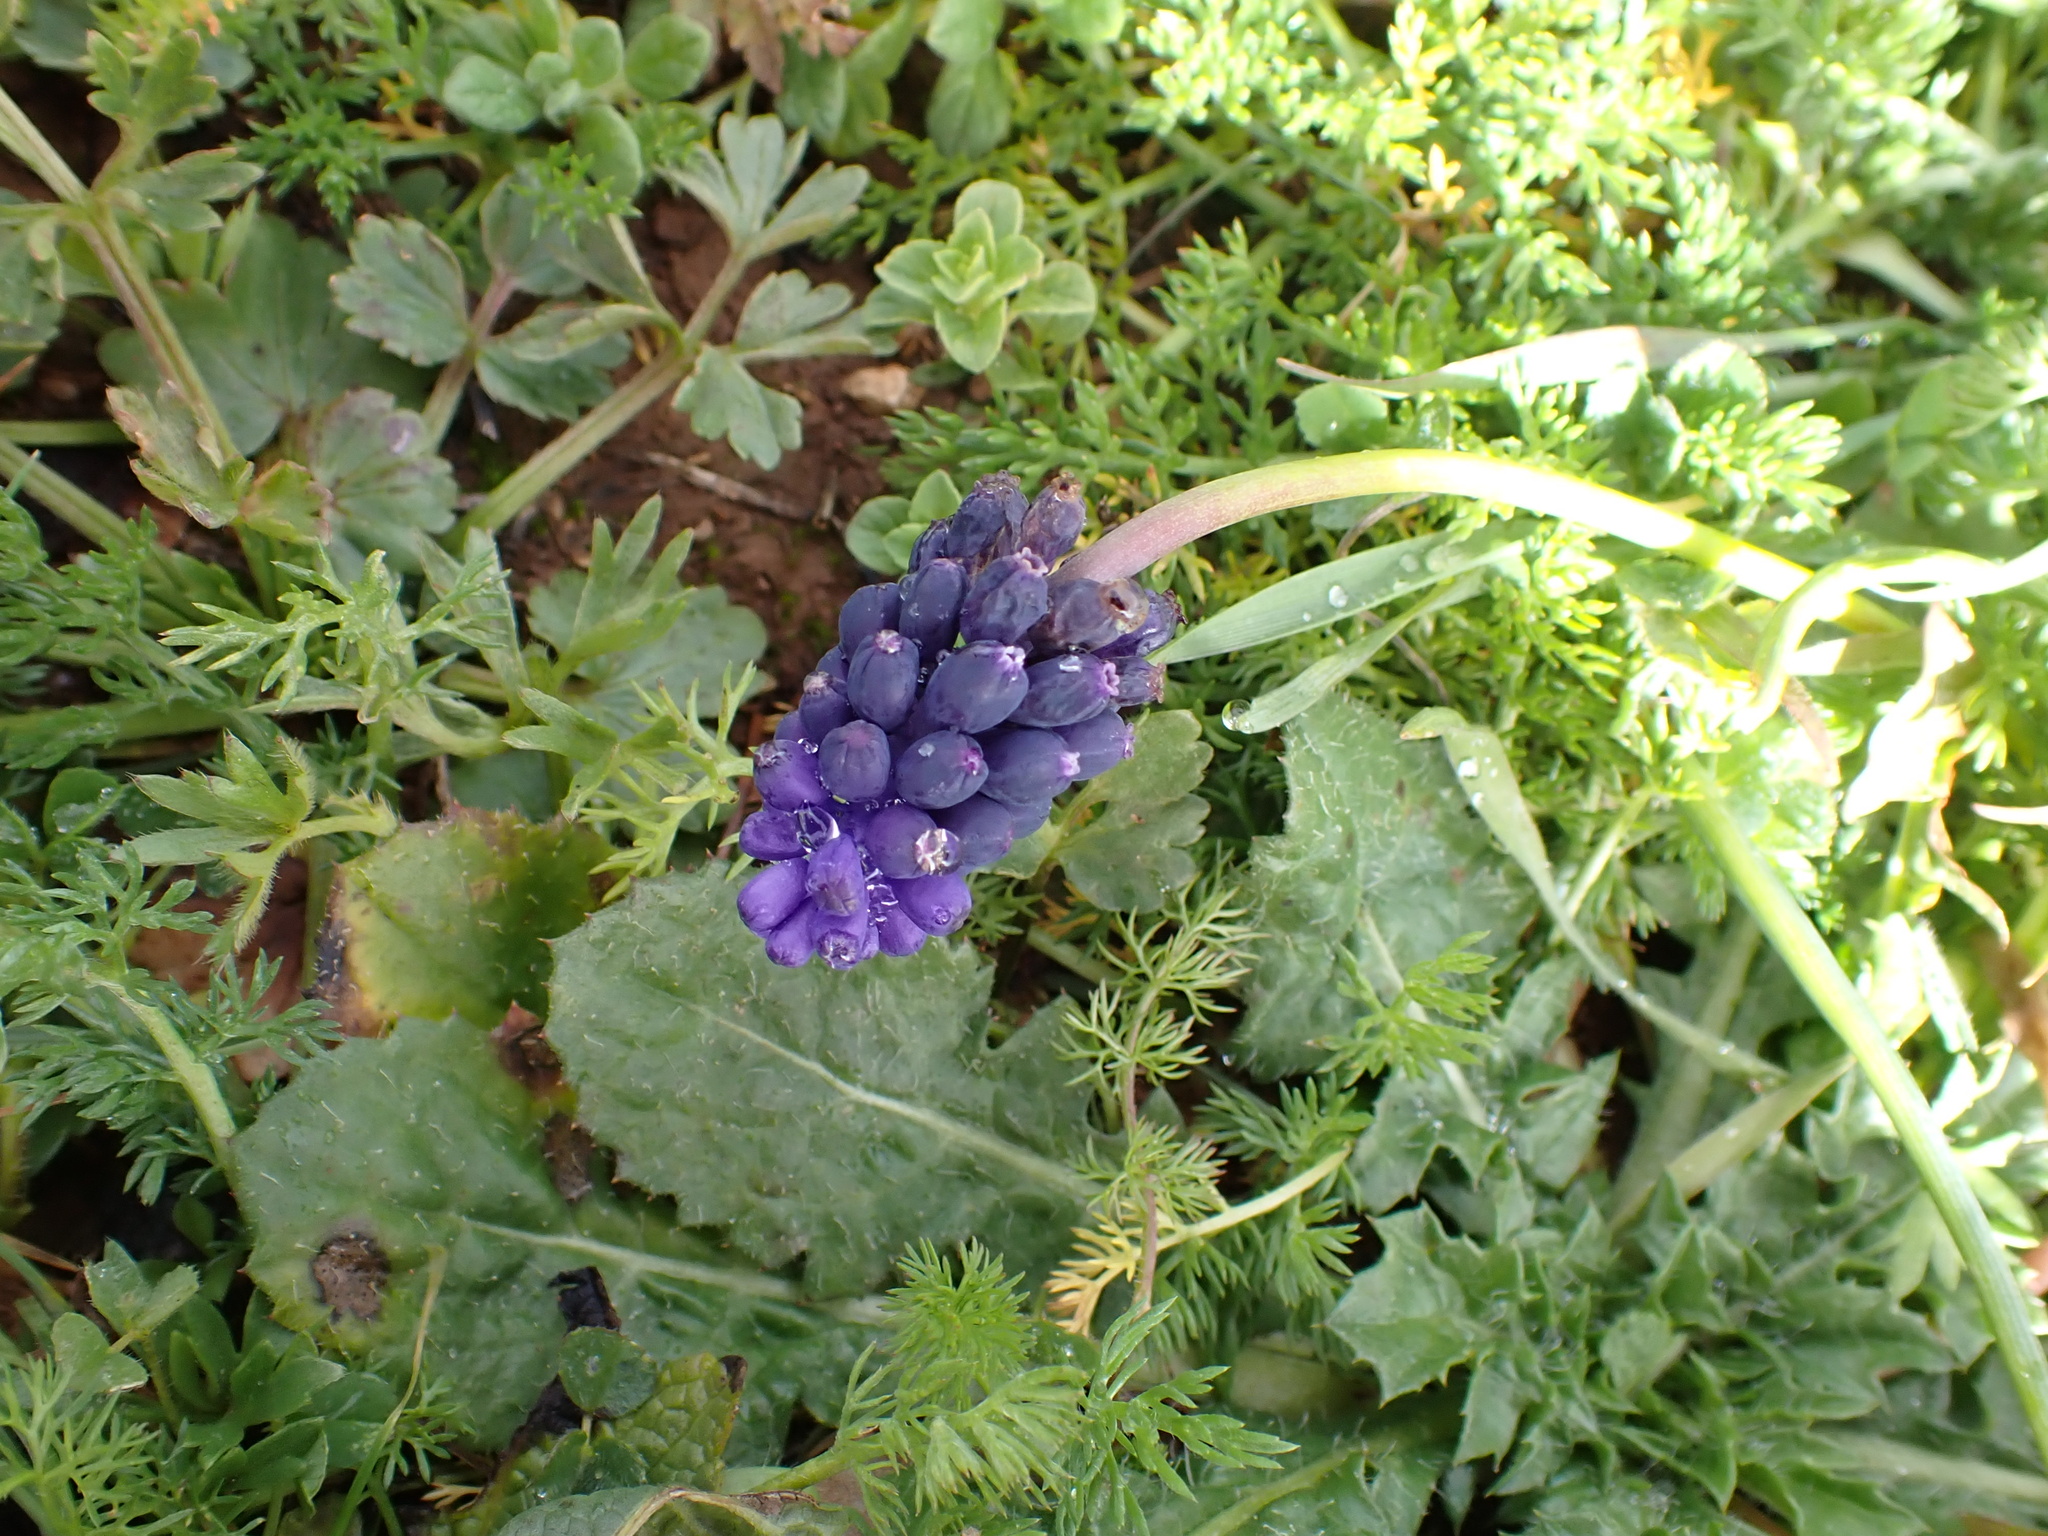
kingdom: Plantae
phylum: Tracheophyta
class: Liliopsida
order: Asparagales
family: Asparagaceae
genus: Muscari
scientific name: Muscari neglectum
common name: Grape-hyacinth
